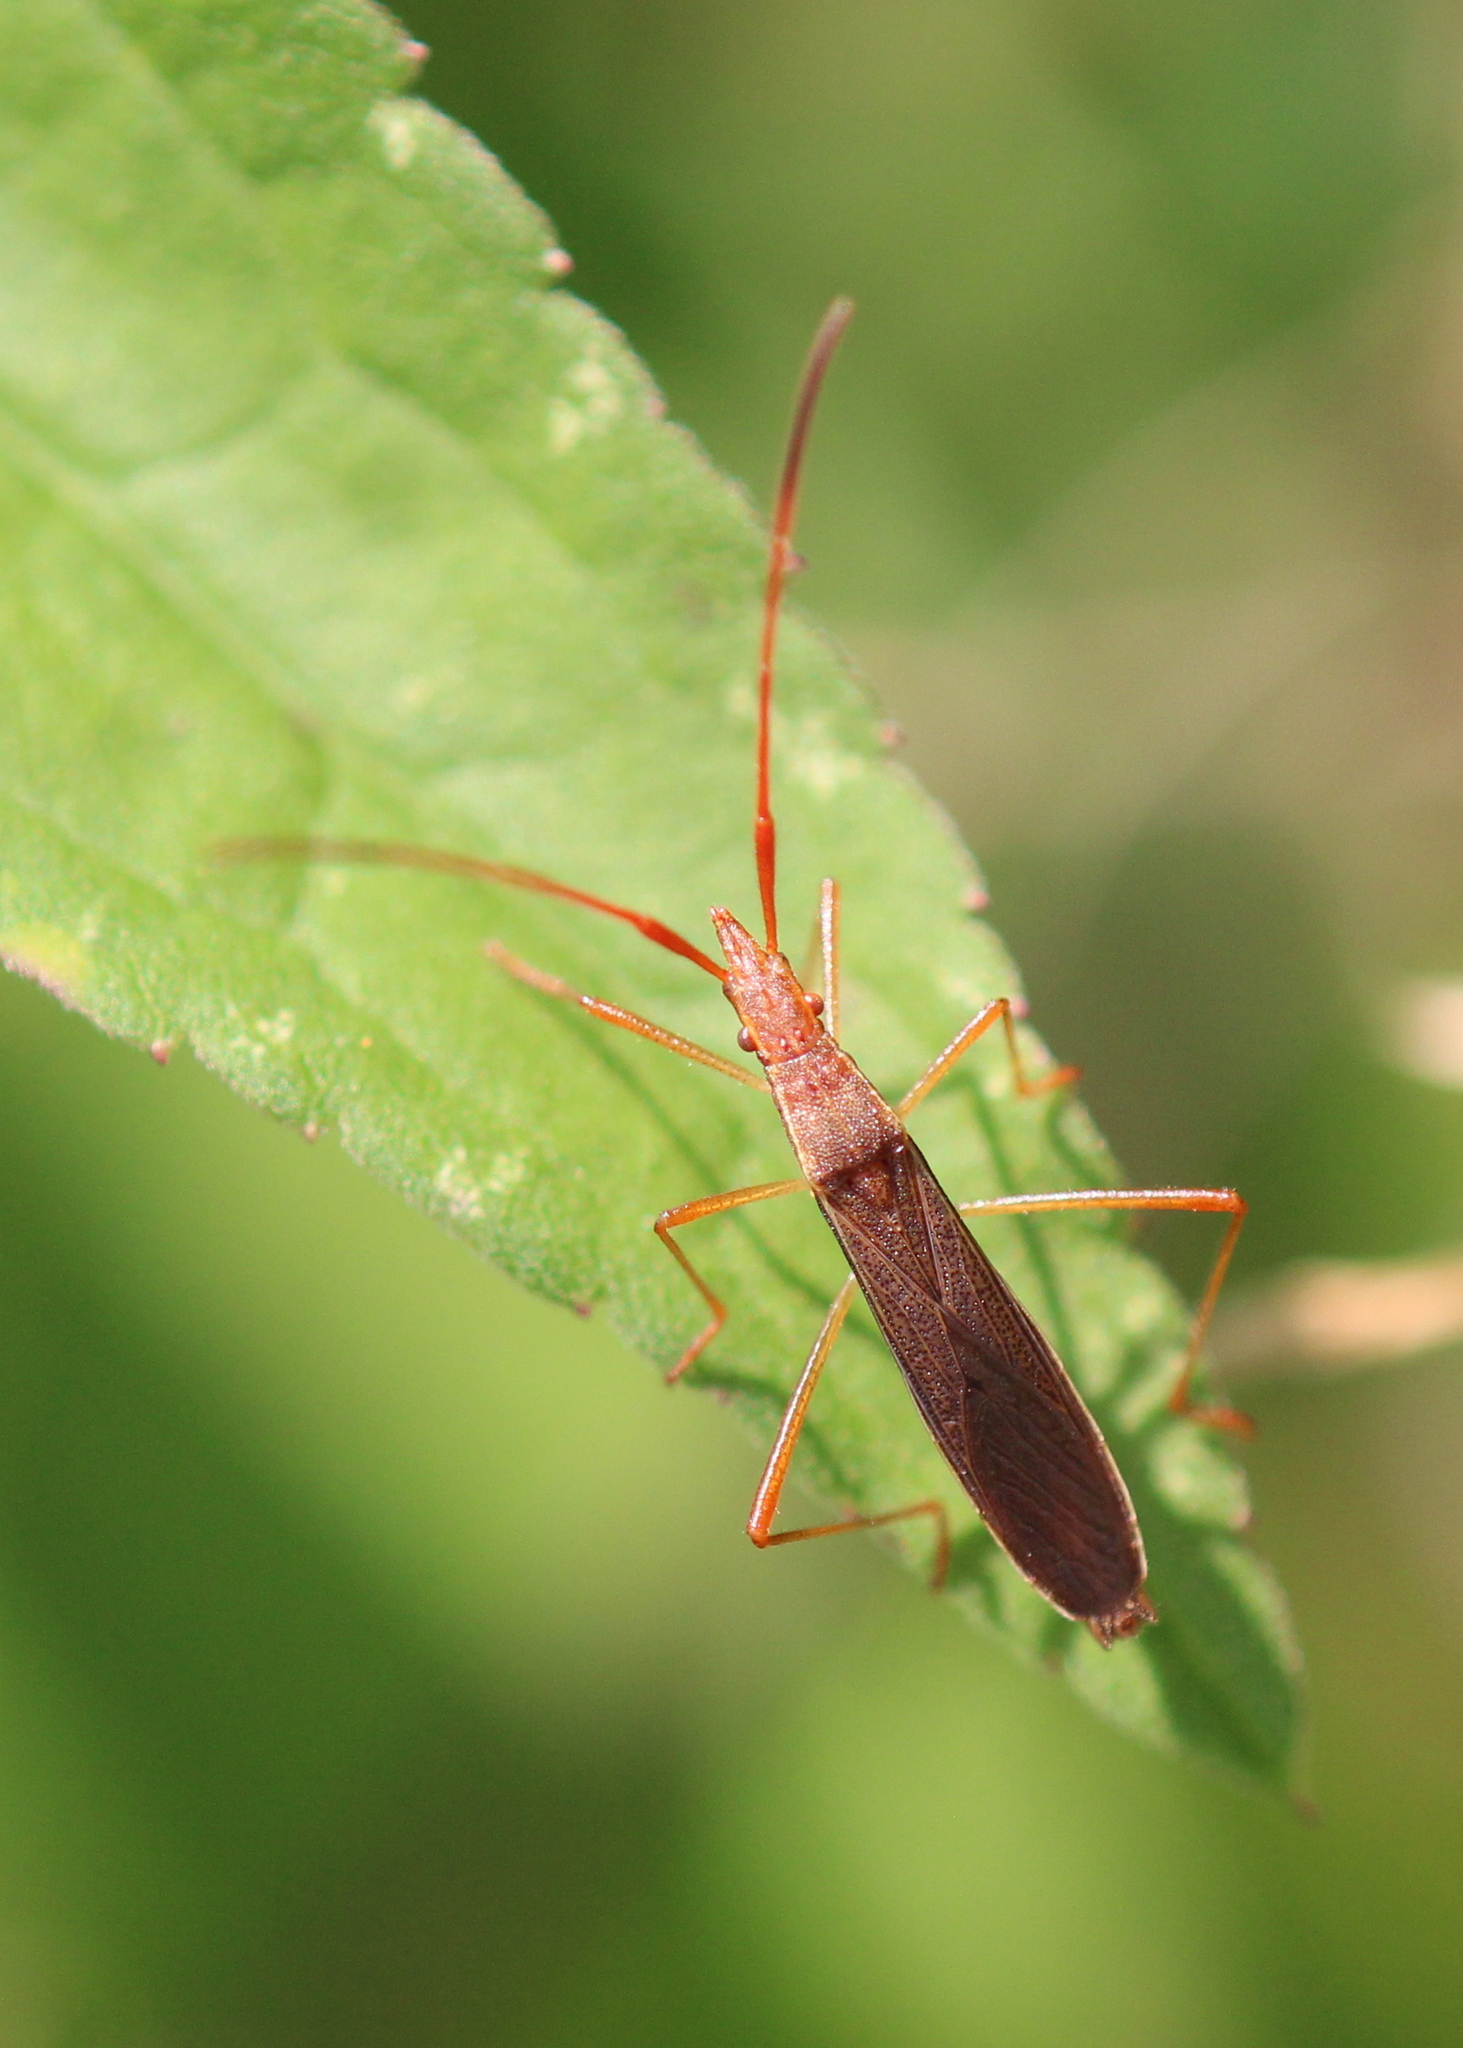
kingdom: Animalia
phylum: Arthropoda
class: Insecta
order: Hemiptera
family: Alydidae
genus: Protenor
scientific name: Protenor belfragei
